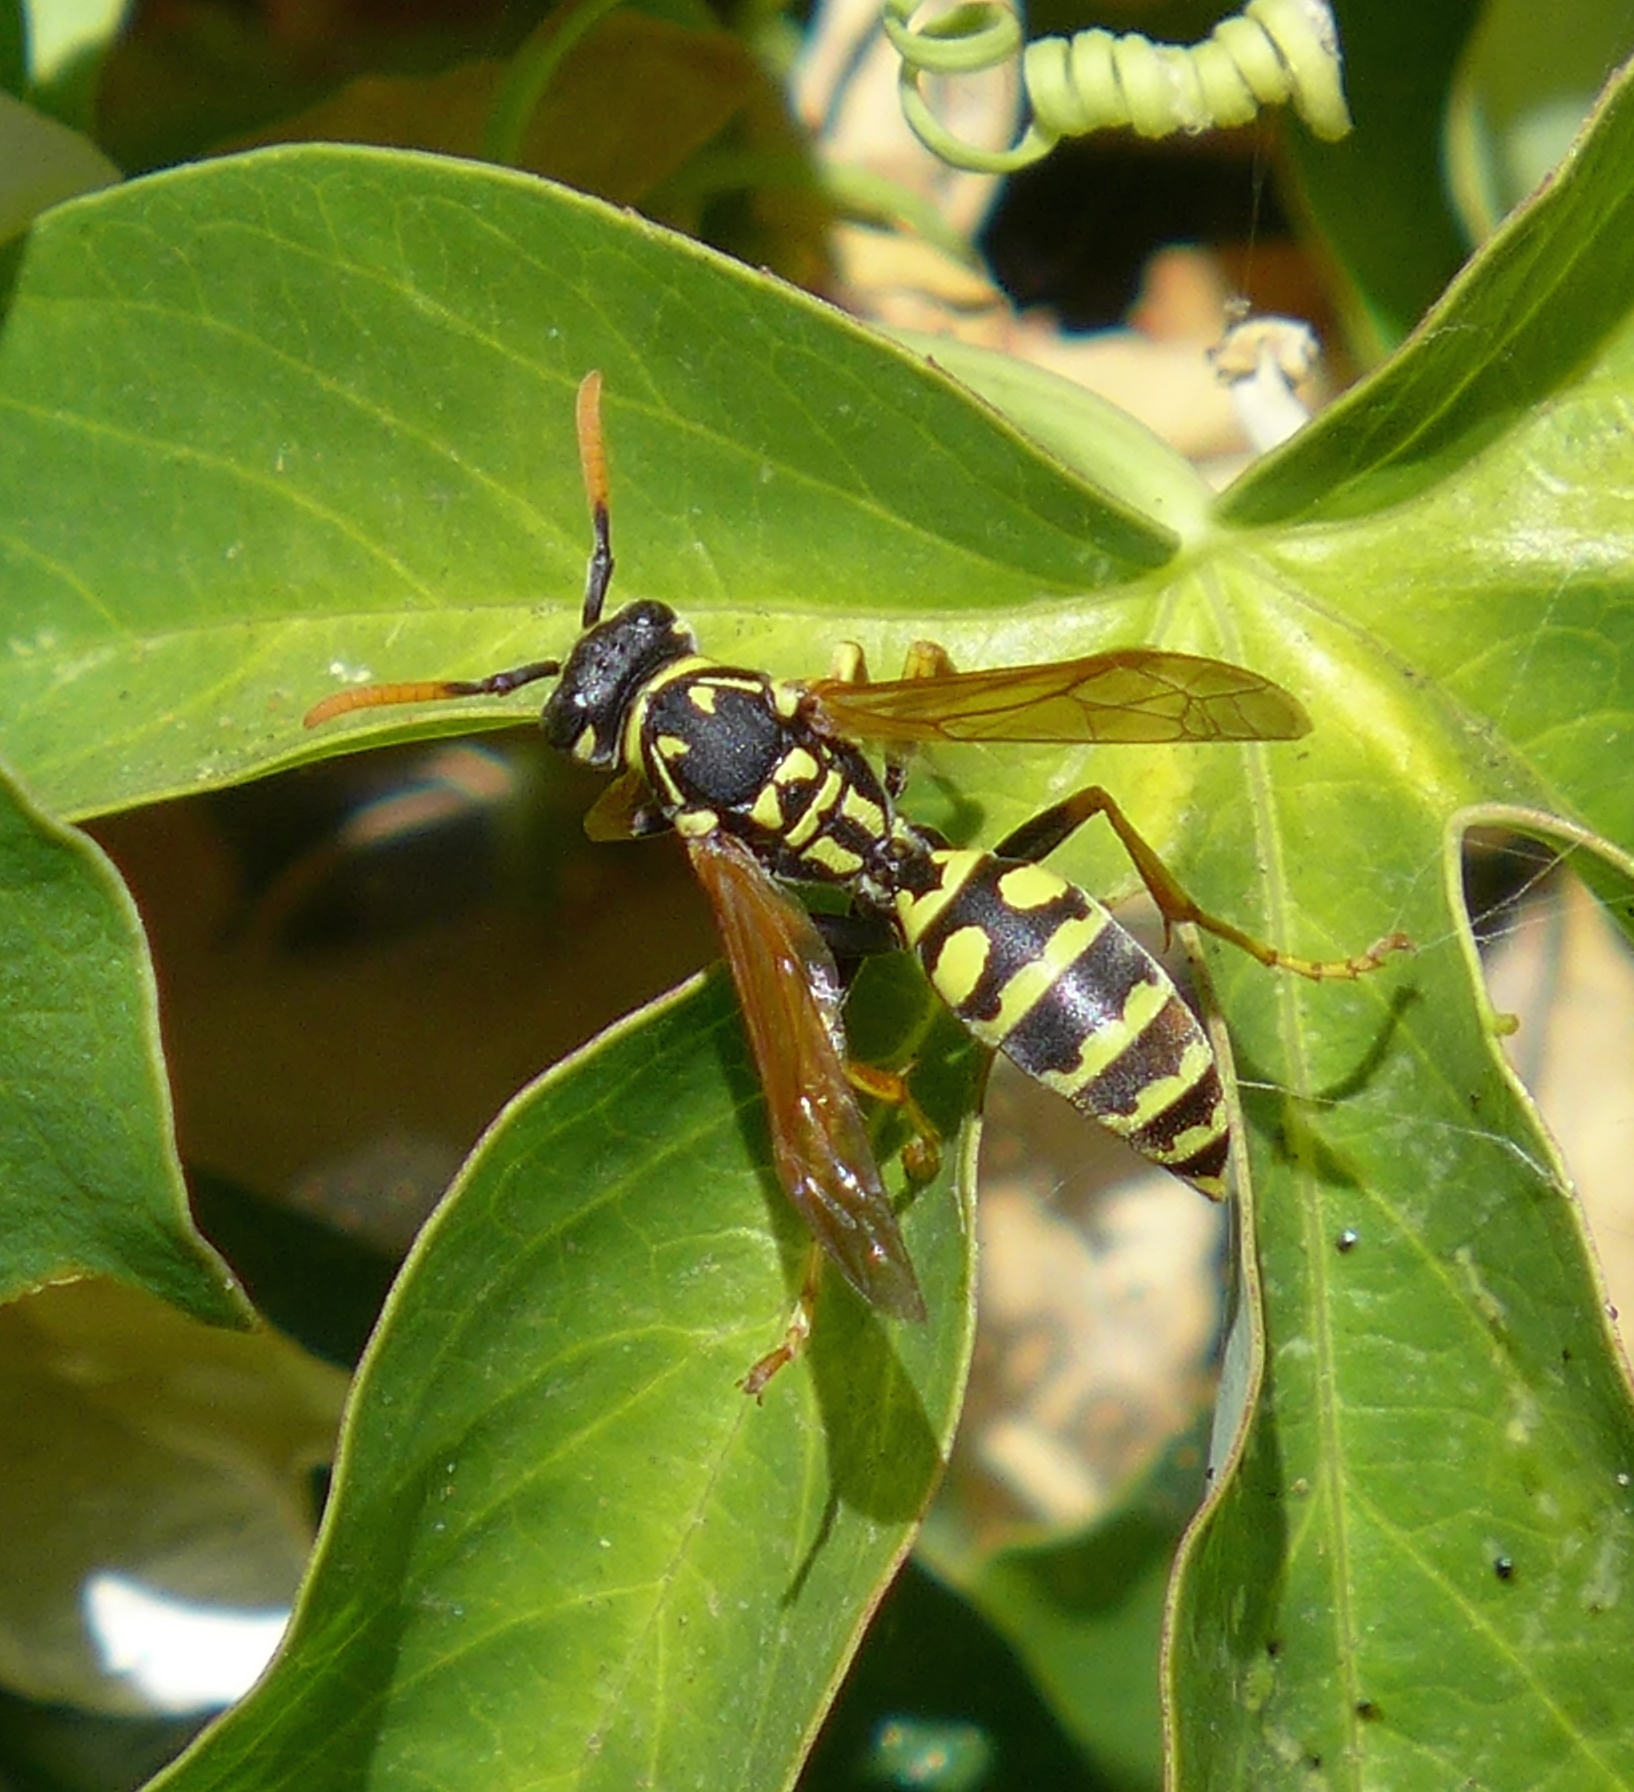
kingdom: Animalia
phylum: Arthropoda
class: Insecta
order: Hymenoptera
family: Eumenidae
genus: Polistes
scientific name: Polistes dominula
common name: Paper wasp
